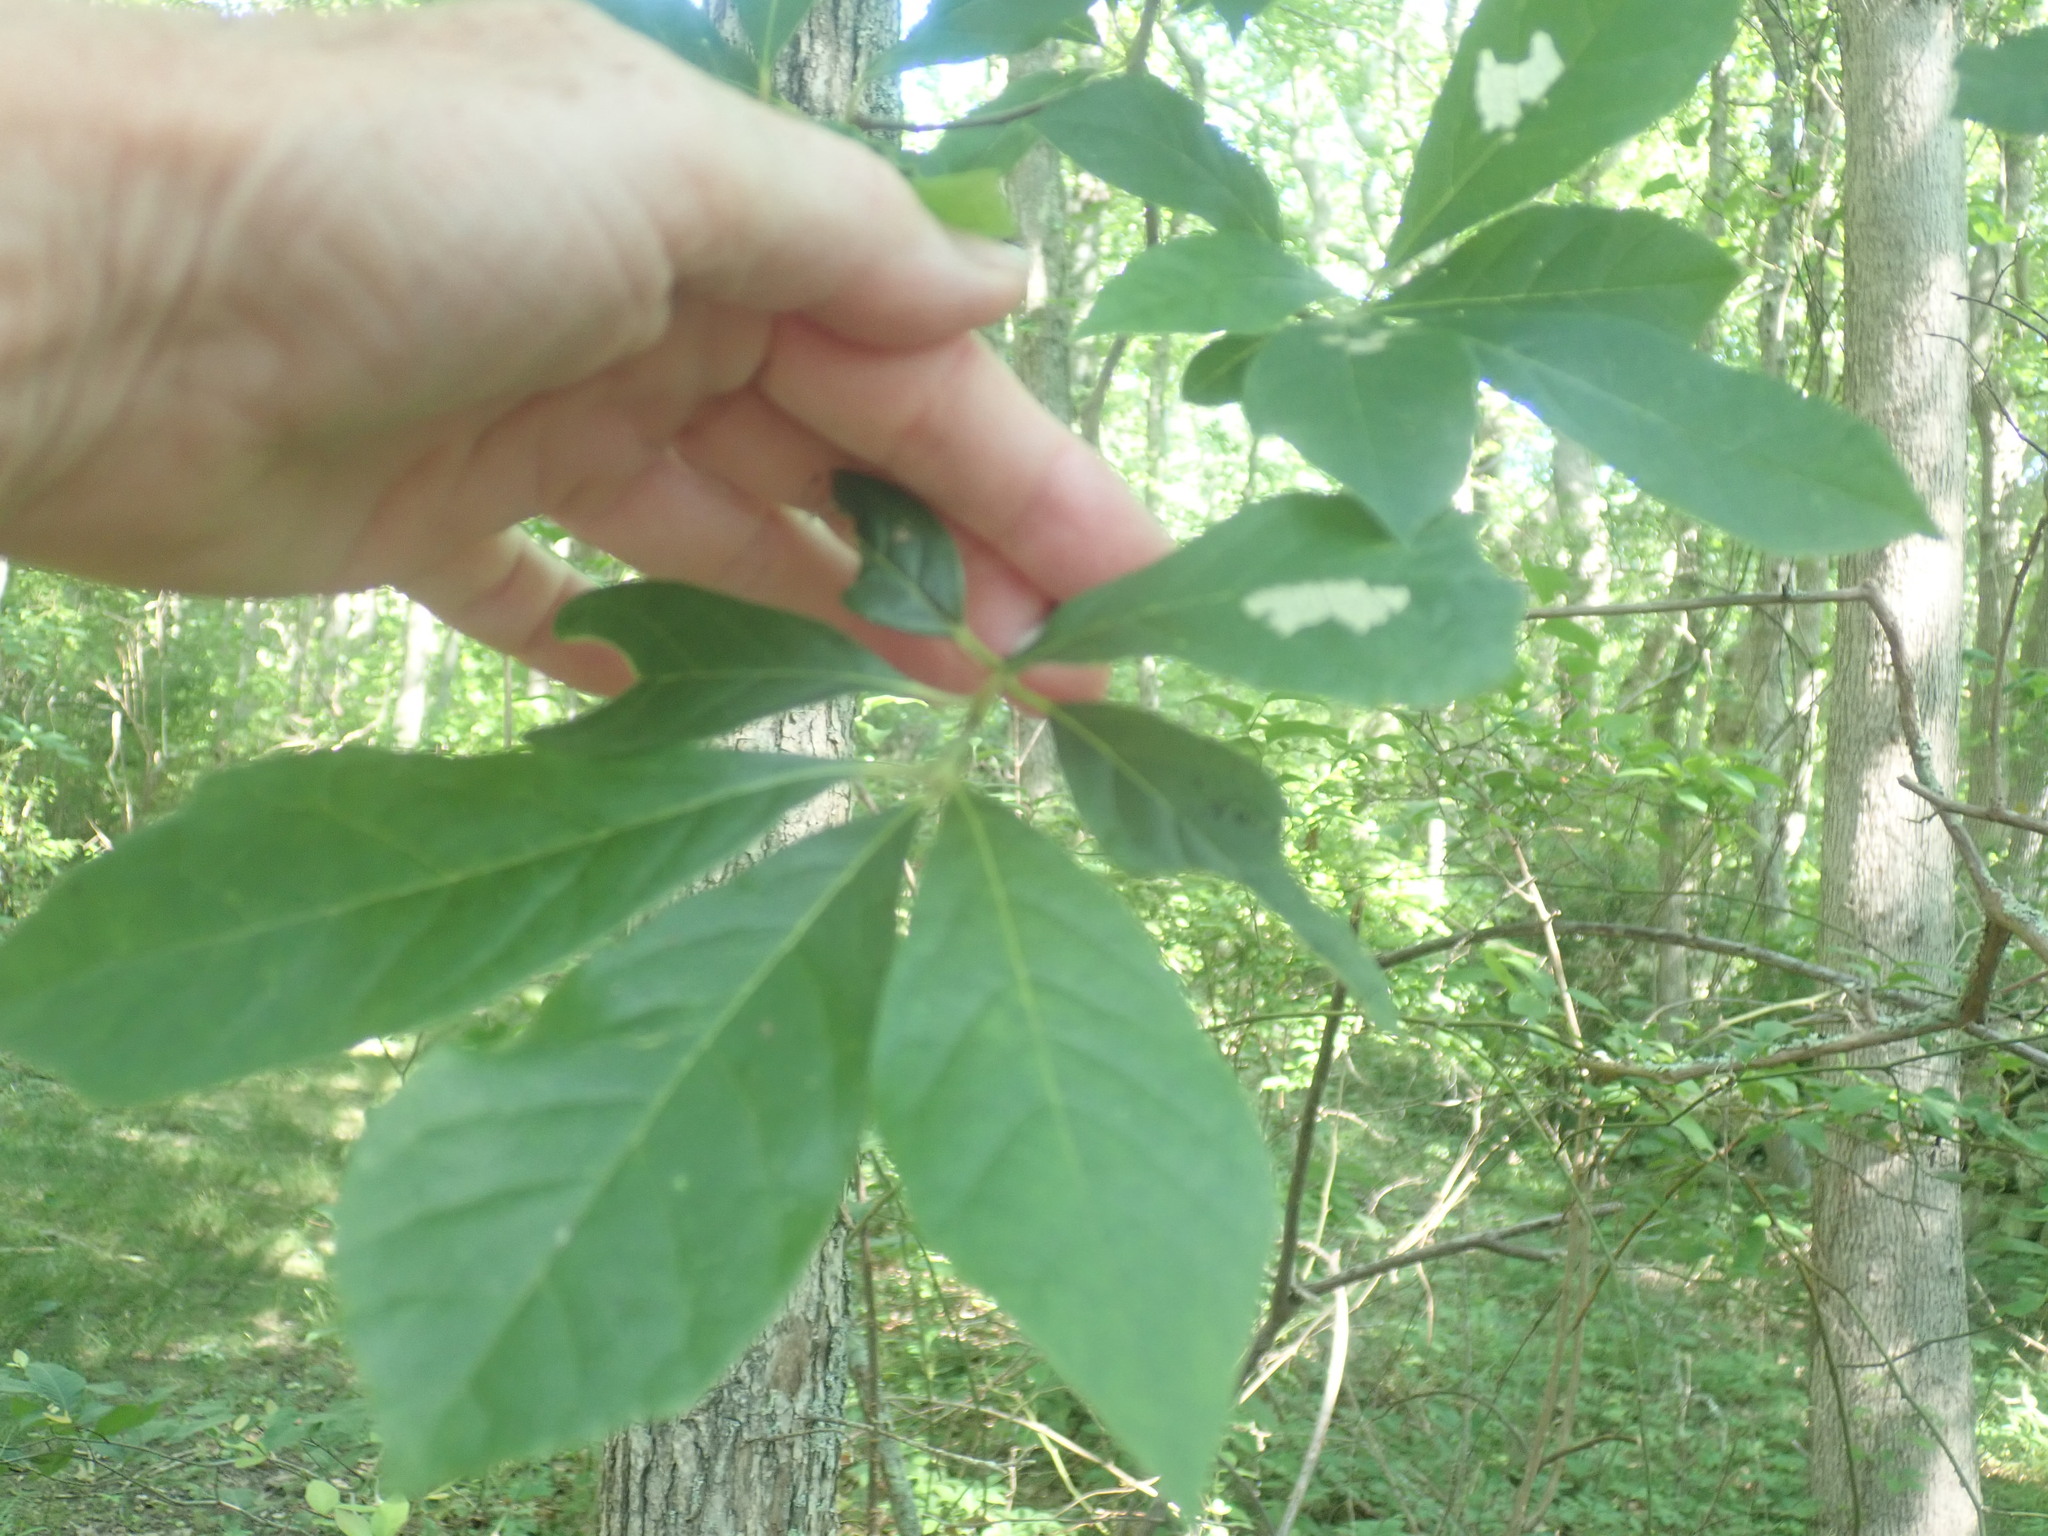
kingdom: Plantae
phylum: Tracheophyta
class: Magnoliopsida
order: Cornales
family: Nyssaceae
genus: Nyssa
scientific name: Nyssa sylvatica
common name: Black tupelo
